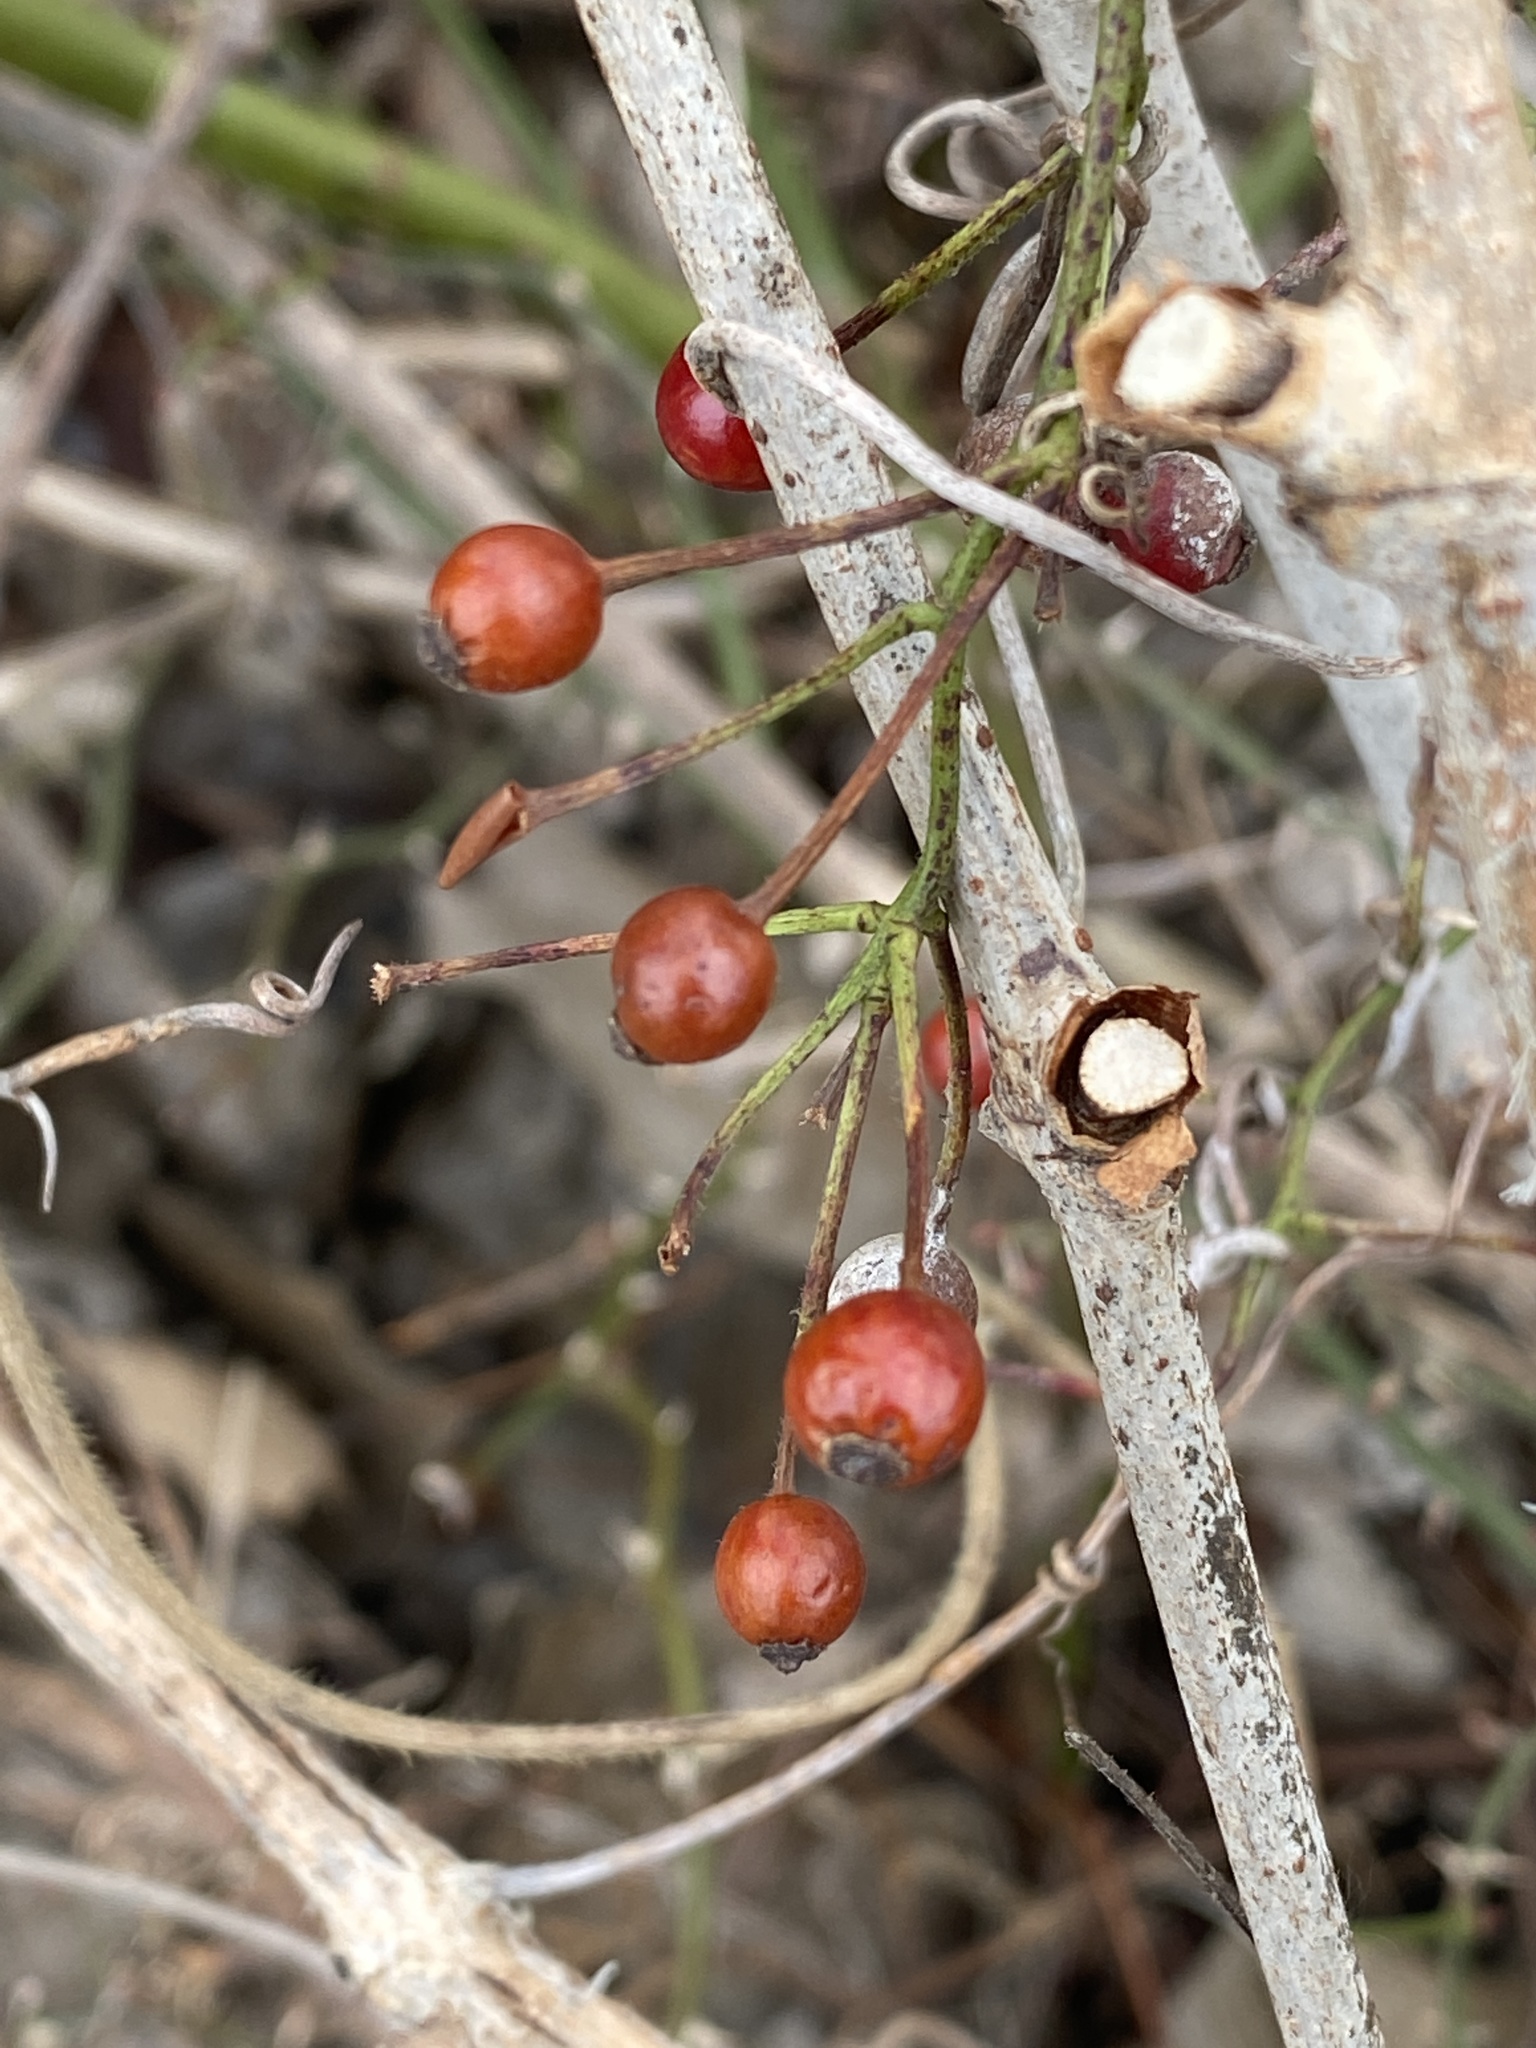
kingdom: Plantae
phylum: Tracheophyta
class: Magnoliopsida
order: Rosales
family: Rosaceae
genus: Rosa
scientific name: Rosa multiflora
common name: Multiflora rose
